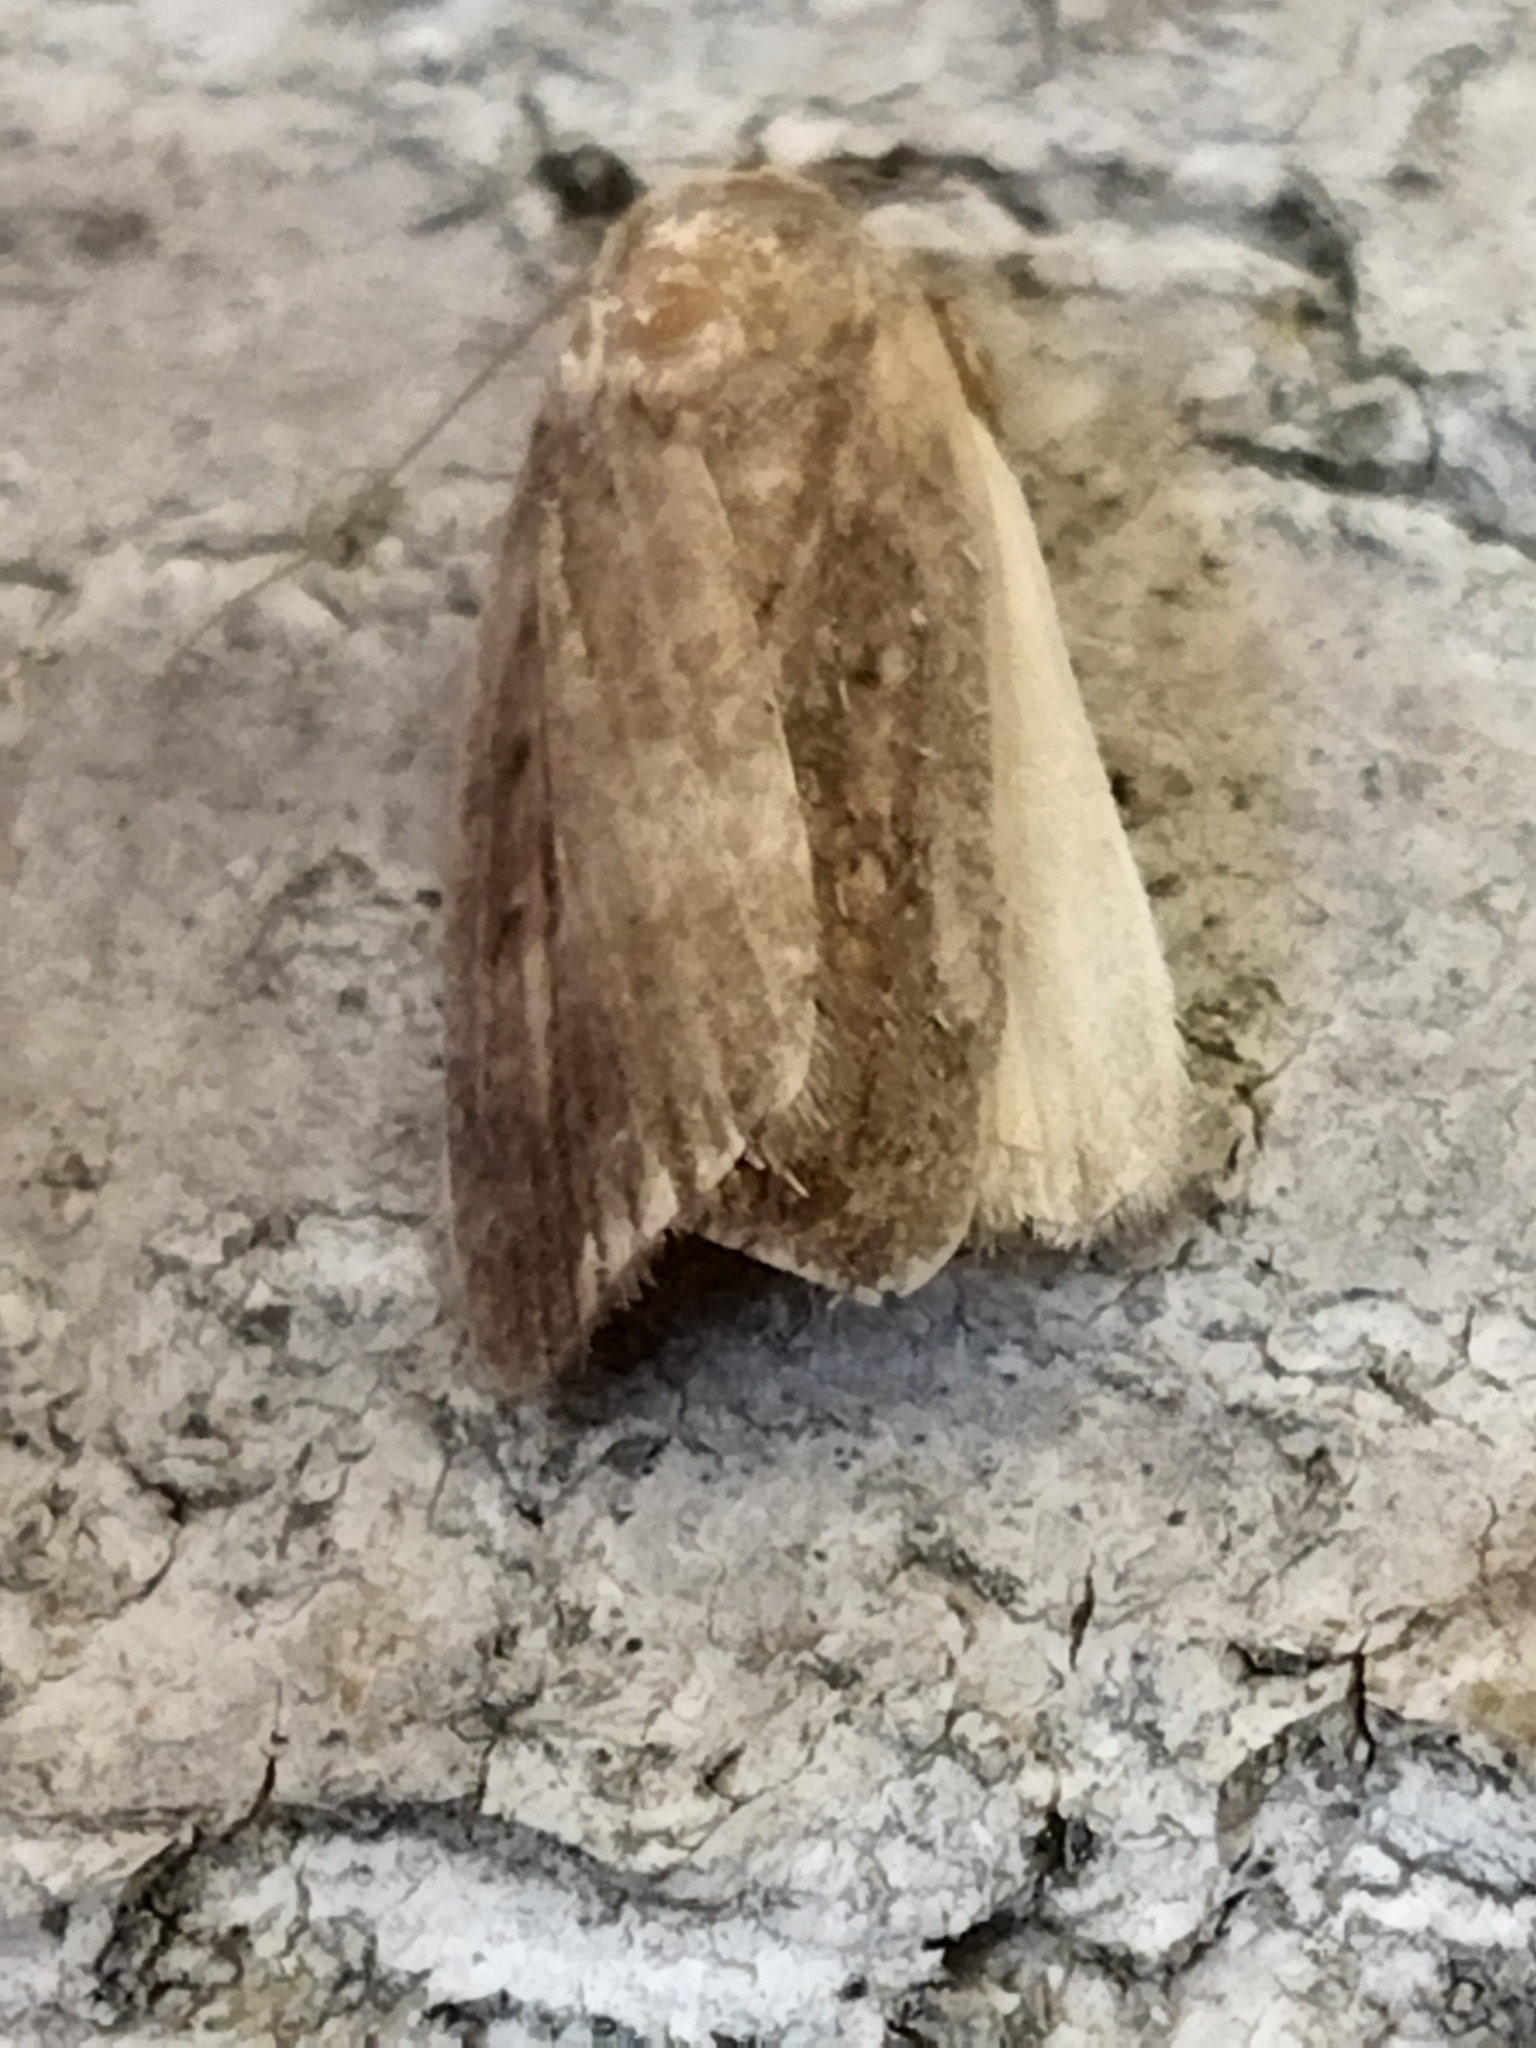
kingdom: Animalia
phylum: Arthropoda
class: Insecta
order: Lepidoptera
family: Noctuidae
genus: Athetis
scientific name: Athetis hospes
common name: Porter's rustic
